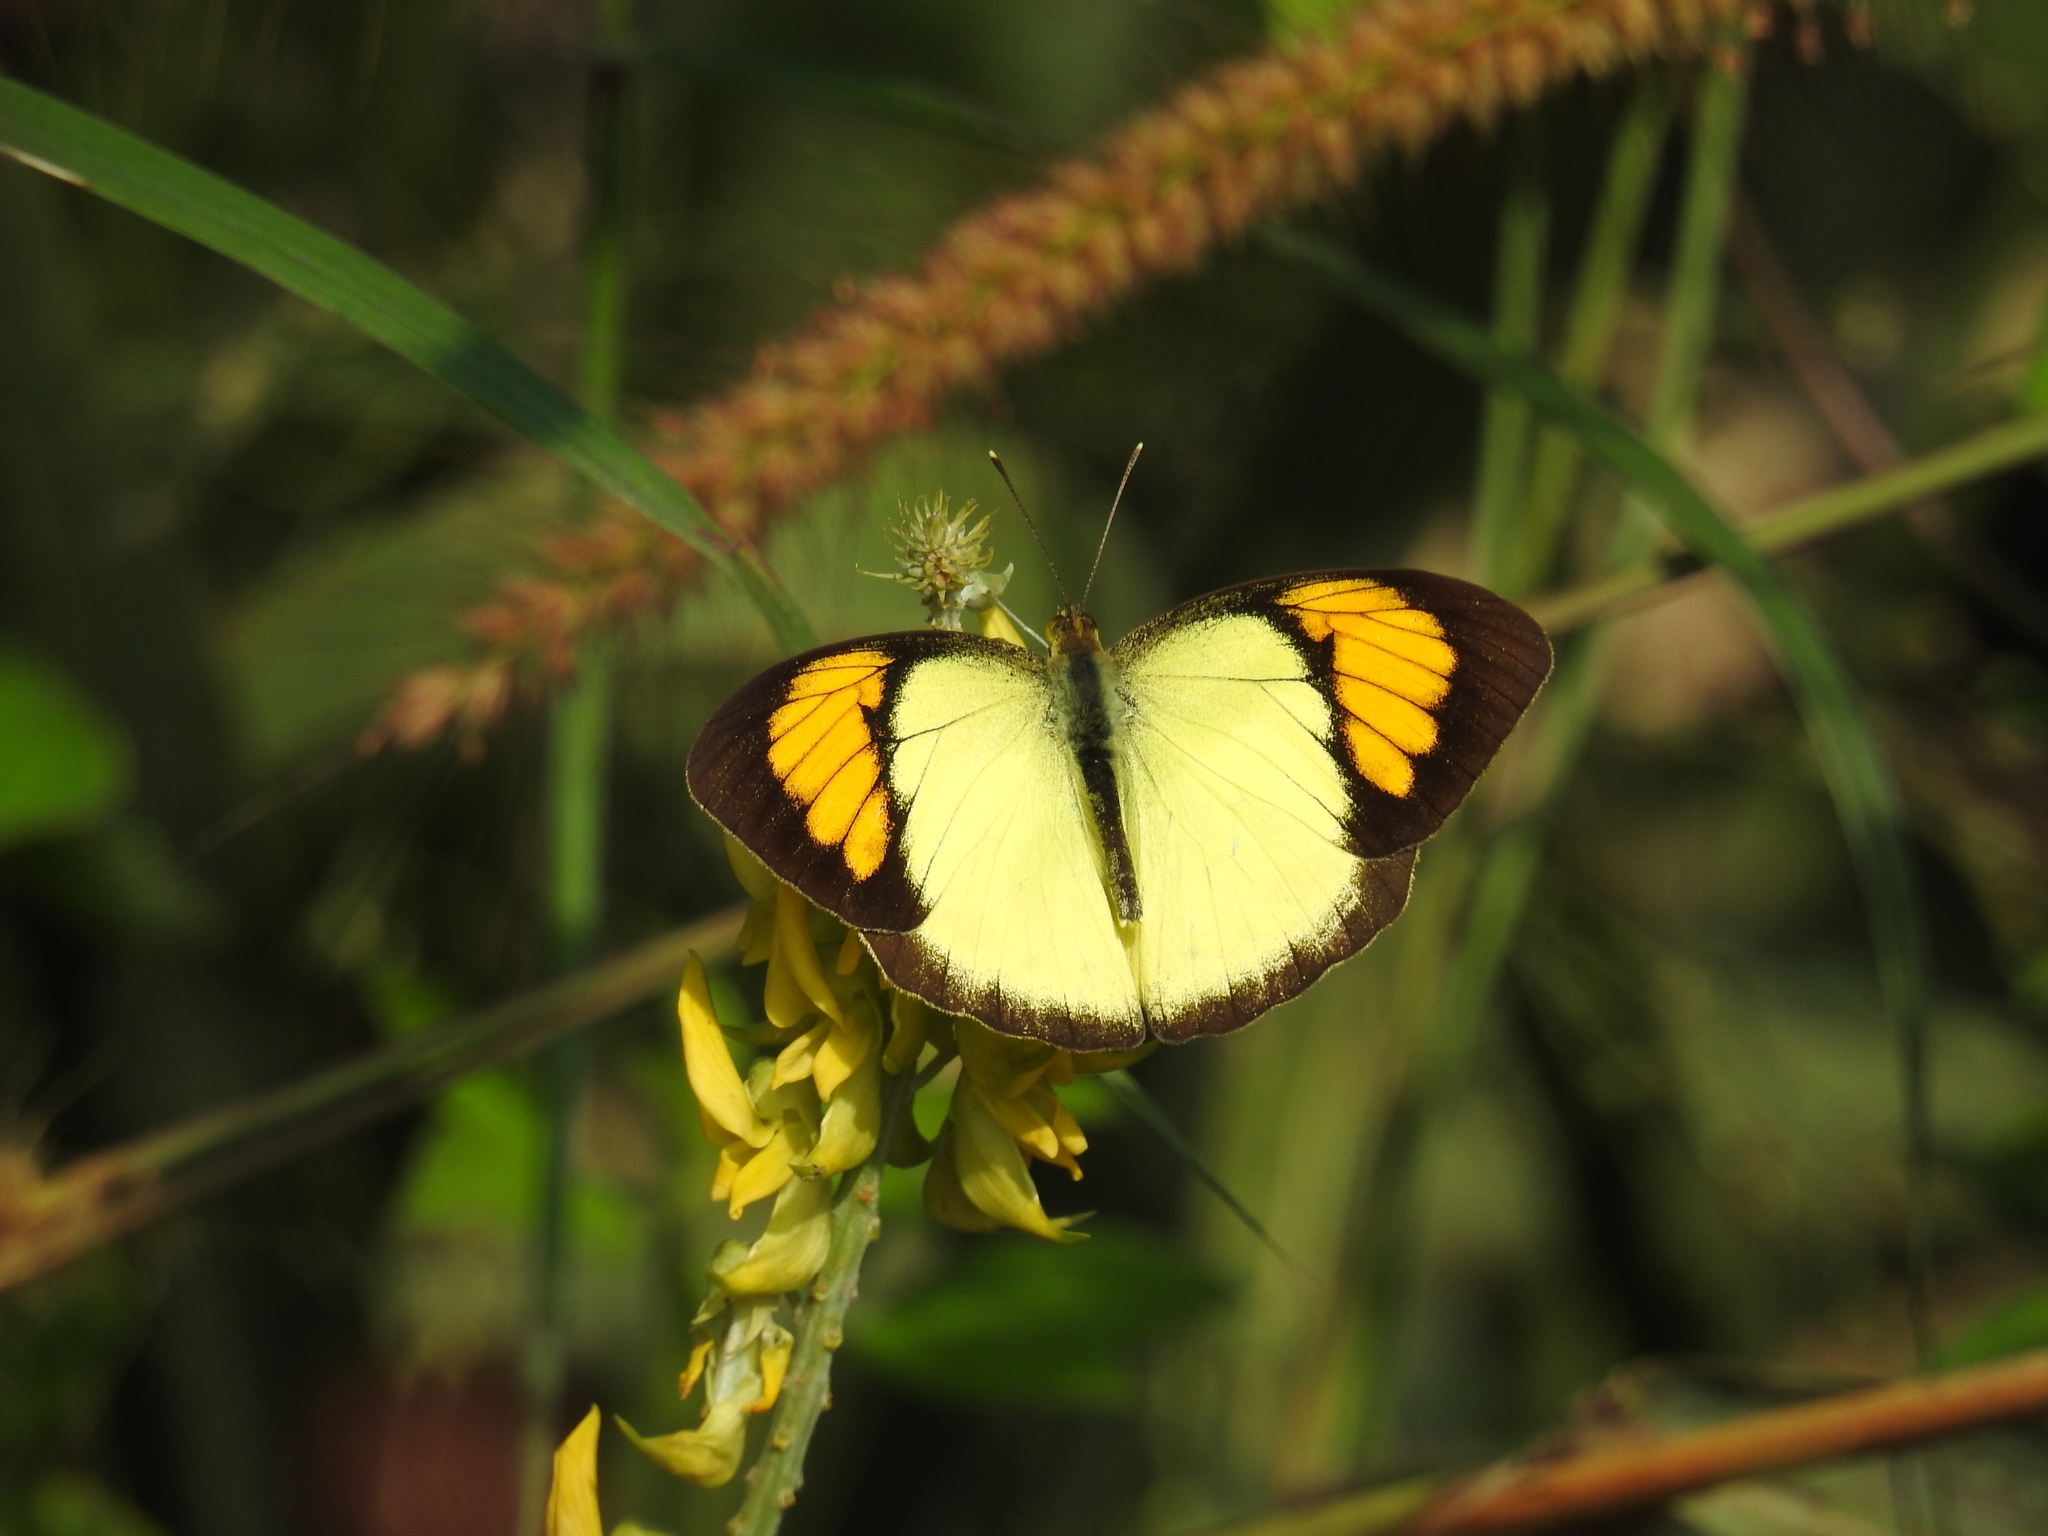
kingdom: Animalia
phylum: Arthropoda
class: Insecta
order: Lepidoptera
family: Pieridae
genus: Ixias
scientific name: Ixias pyrene
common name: Yellow orange tip
